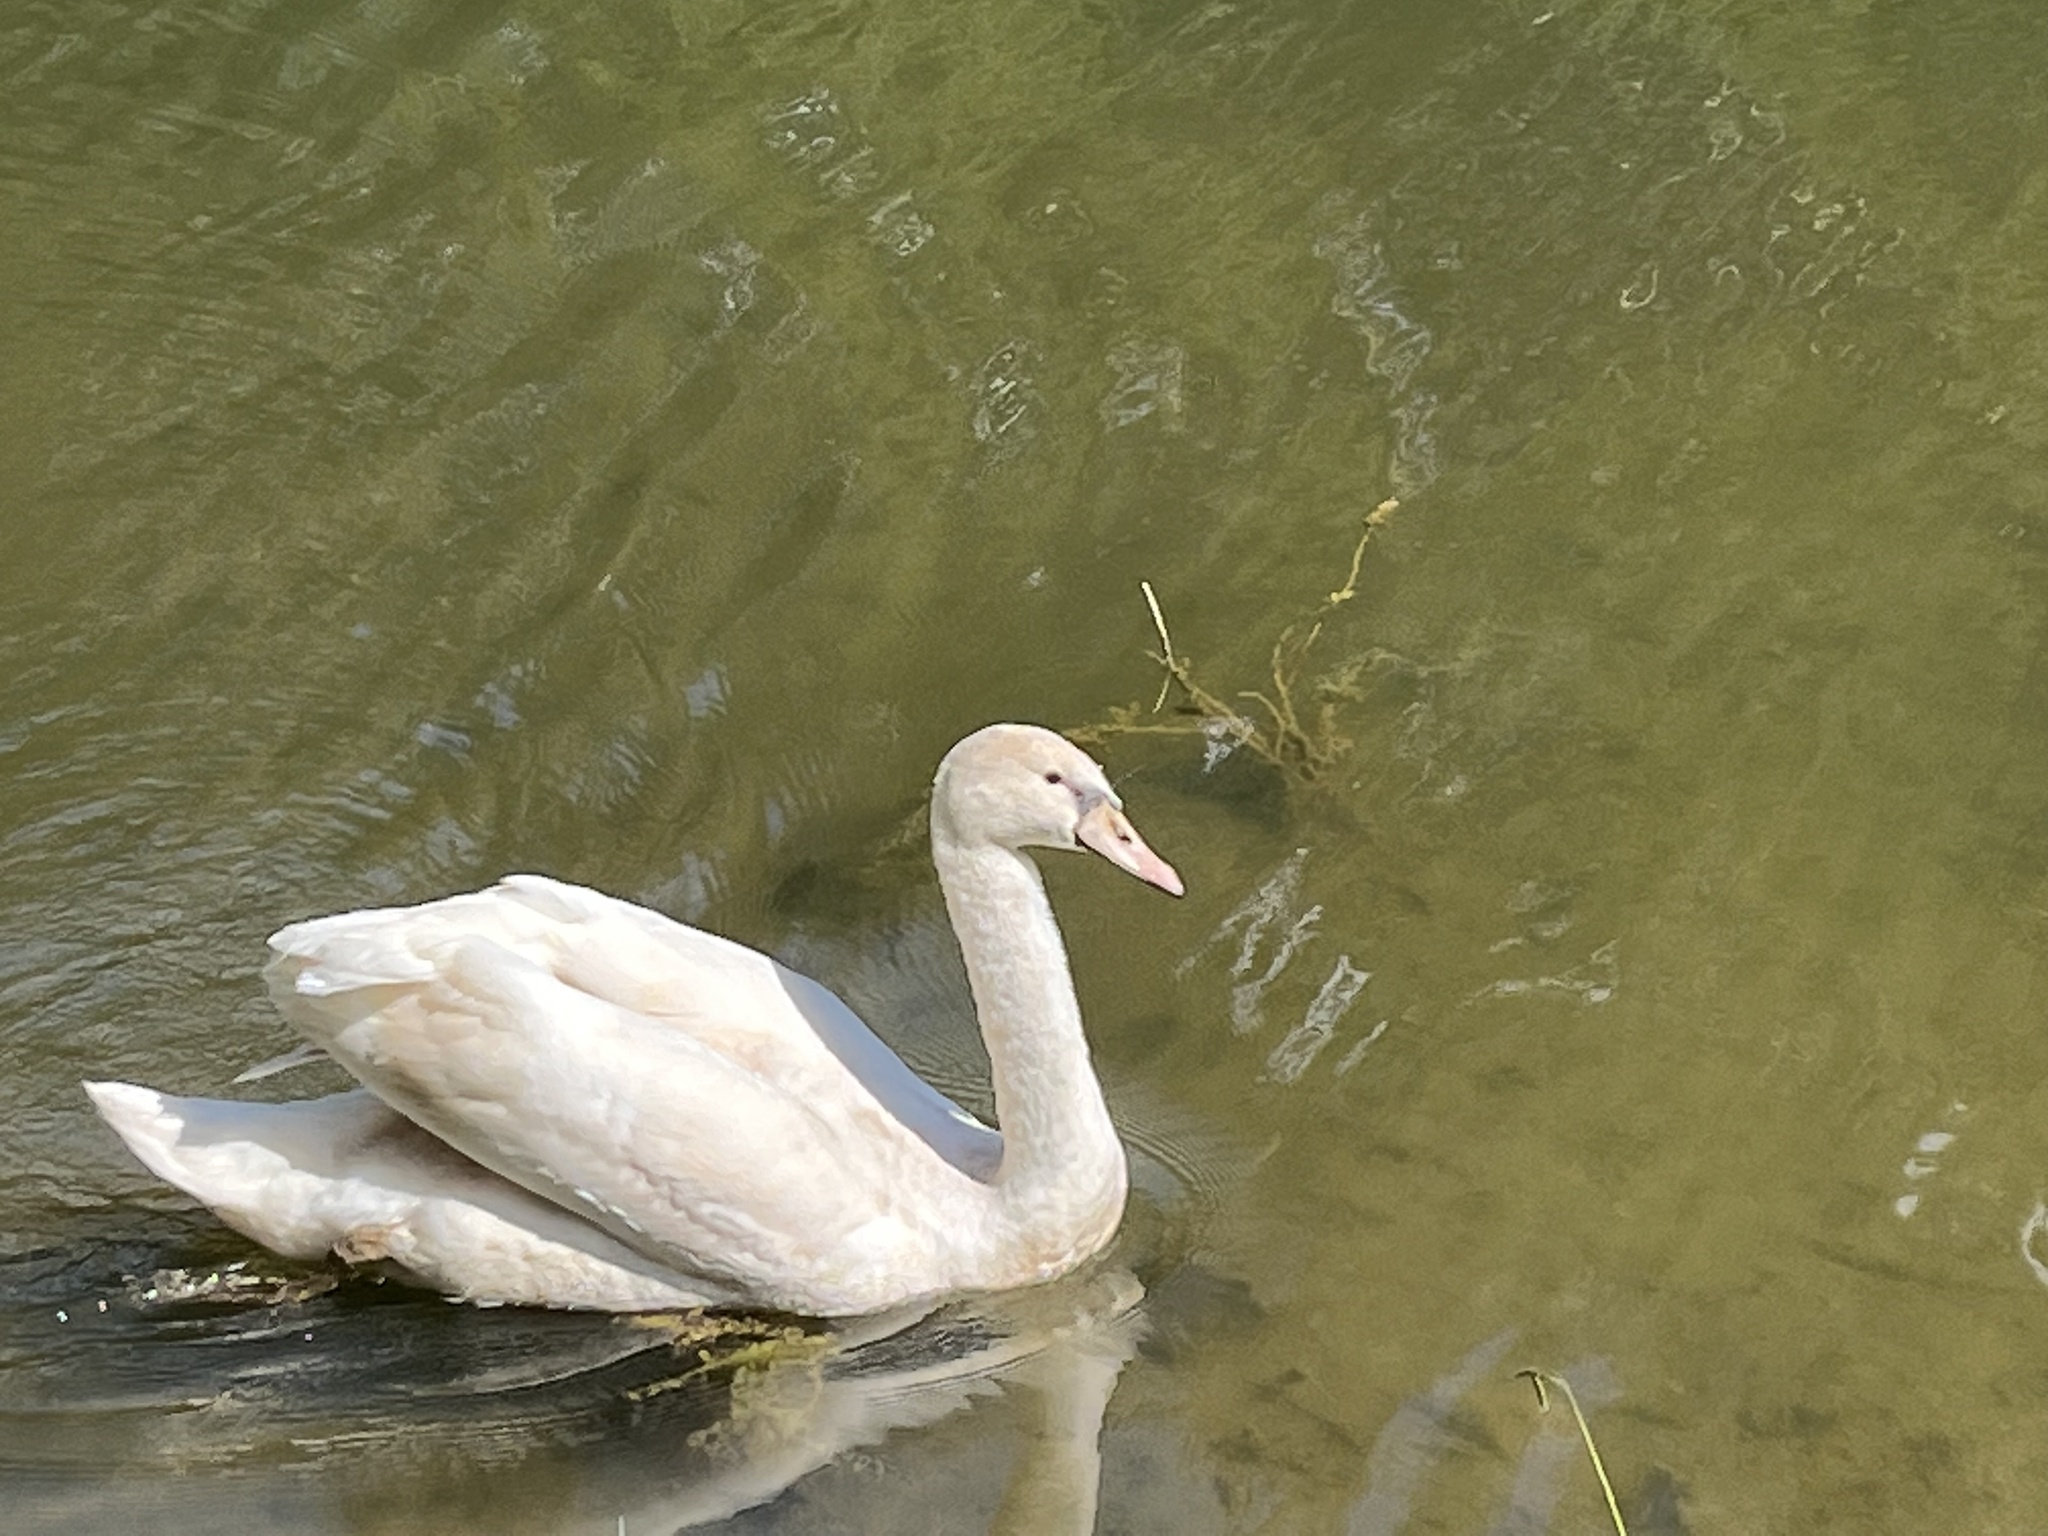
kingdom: Animalia
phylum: Chordata
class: Aves
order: Anseriformes
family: Anatidae
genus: Cygnus
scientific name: Cygnus olor
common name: Mute swan
